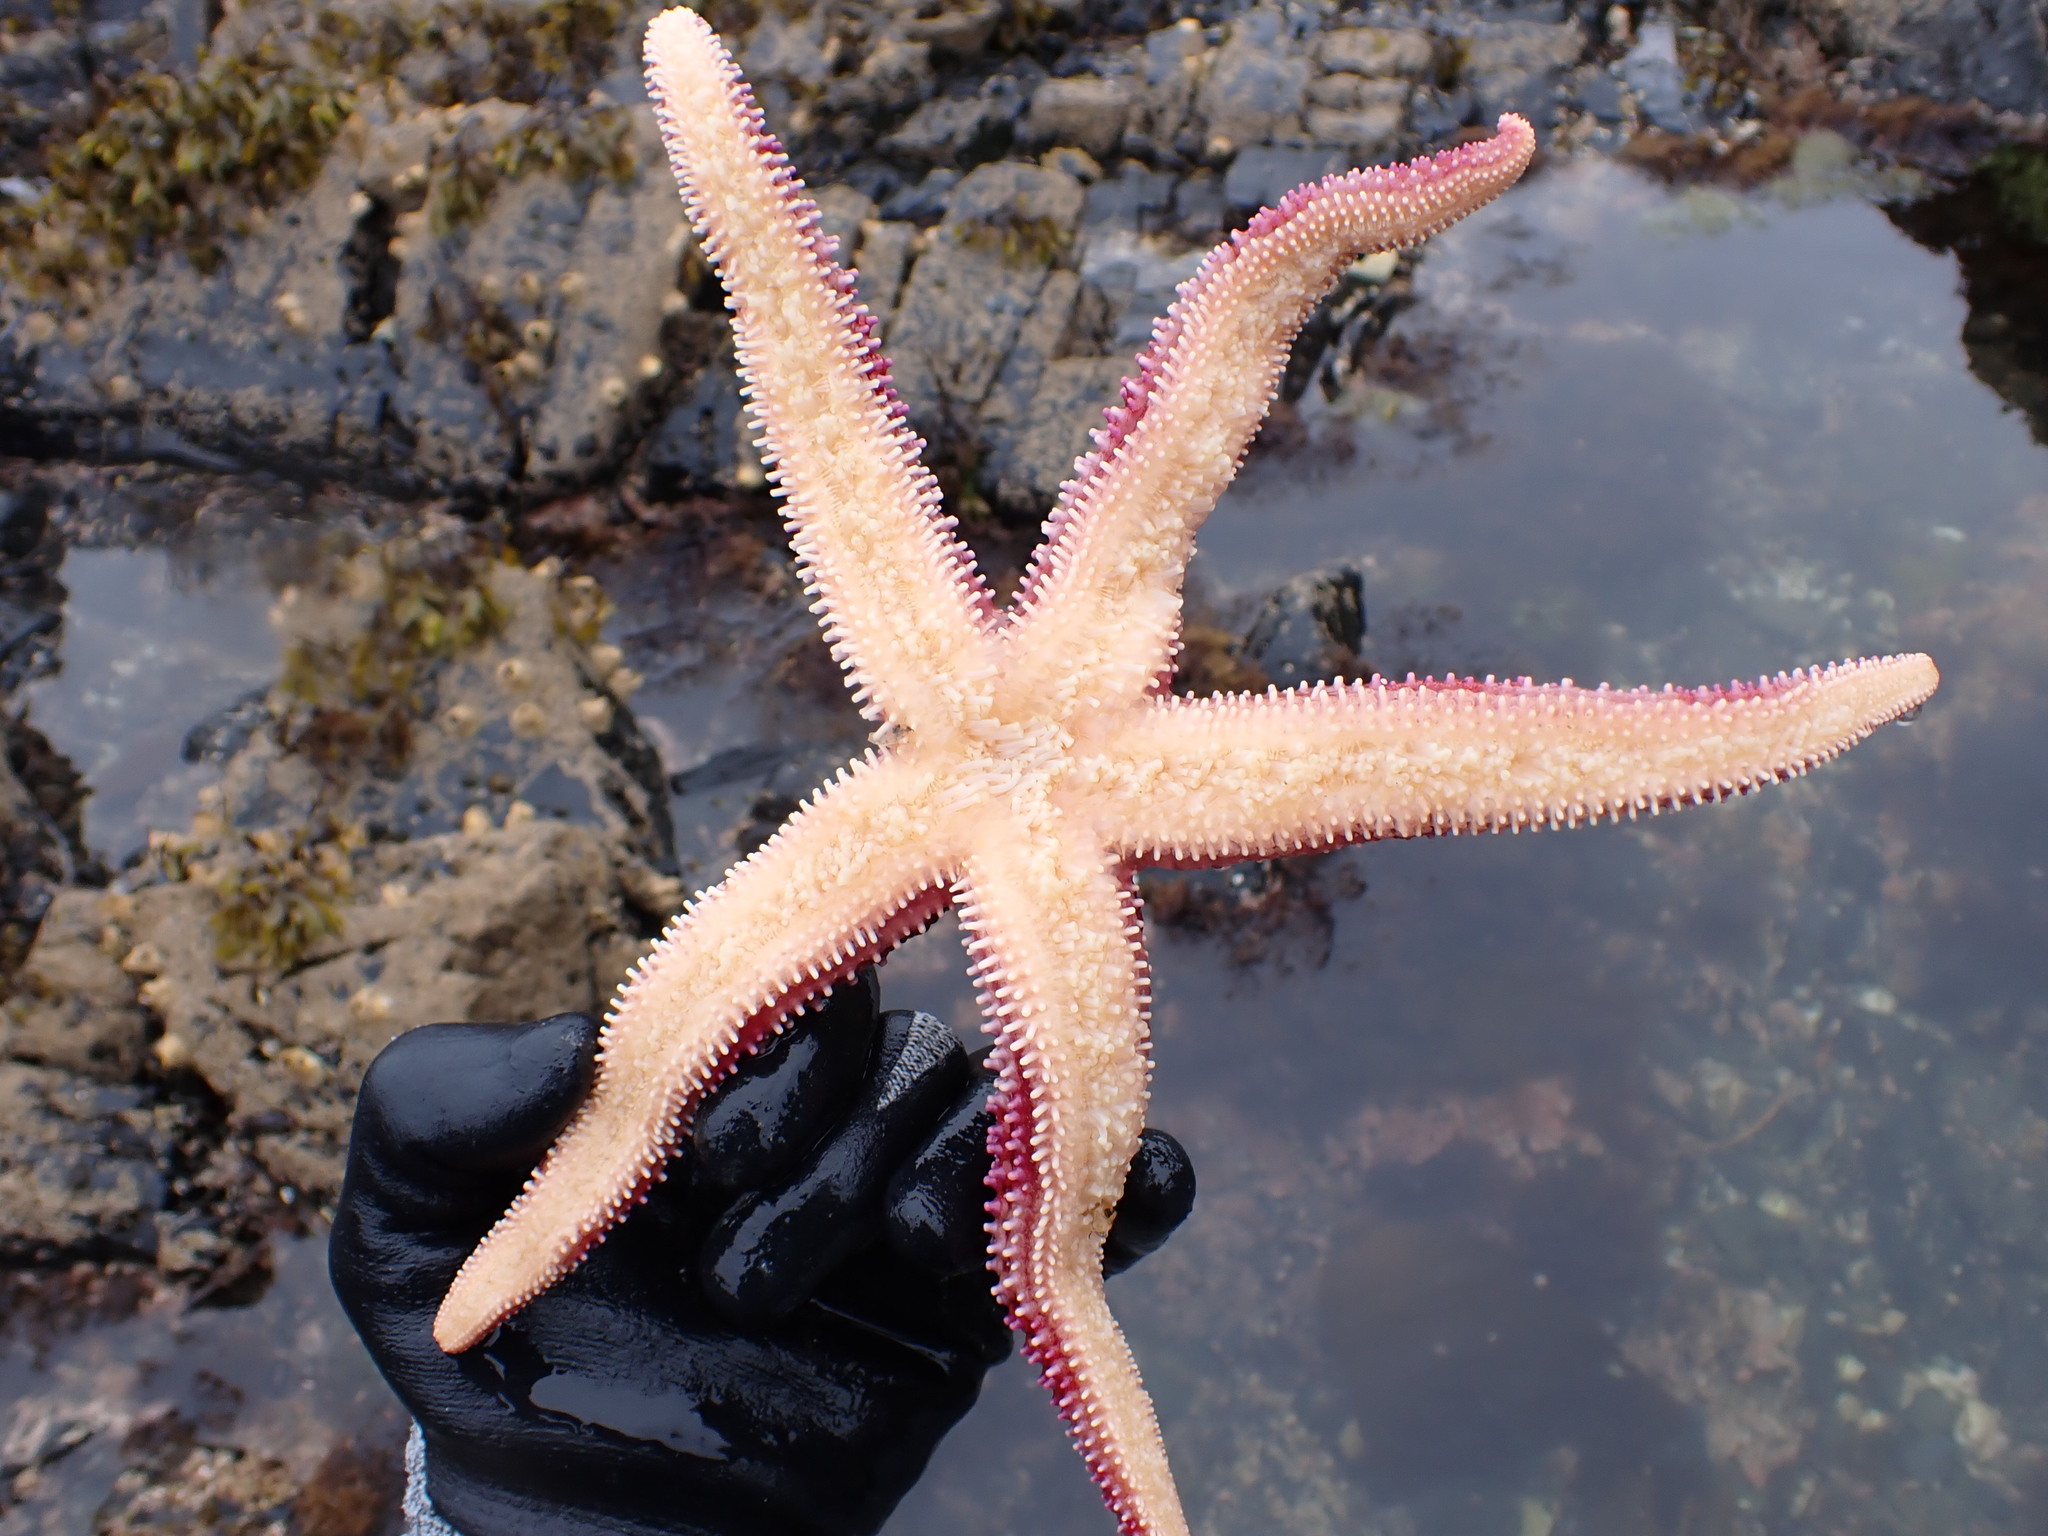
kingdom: Animalia
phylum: Echinodermata
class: Asteroidea
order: Forcipulatida
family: Asteriidae
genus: Orthasterias
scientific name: Orthasterias koehleri
